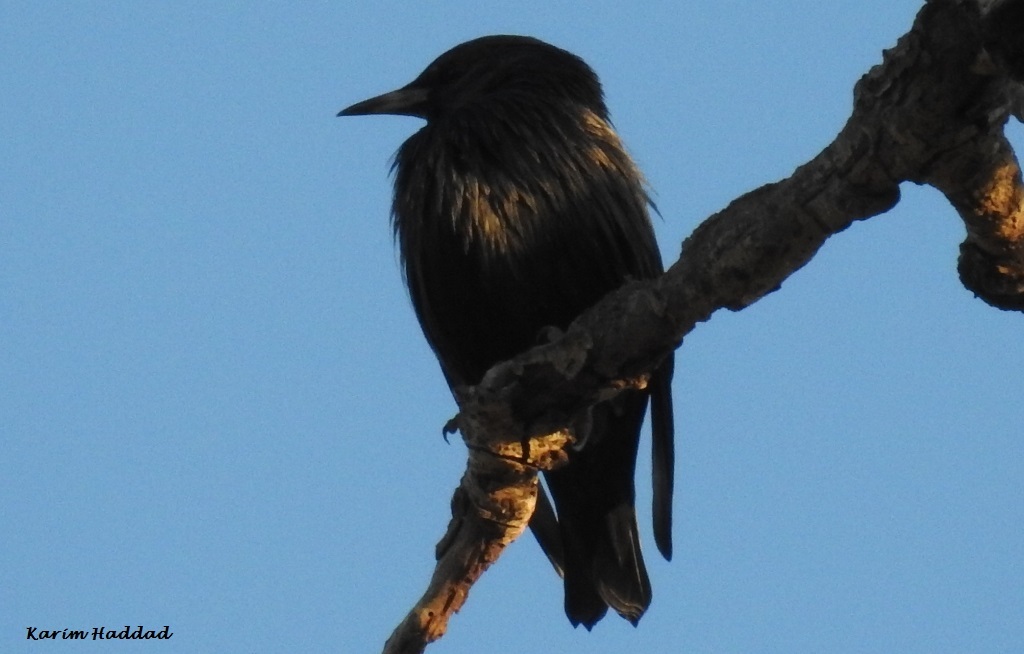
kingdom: Animalia
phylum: Chordata
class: Aves
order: Passeriformes
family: Sturnidae
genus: Sturnus
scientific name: Sturnus unicolor
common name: Spotless starling
